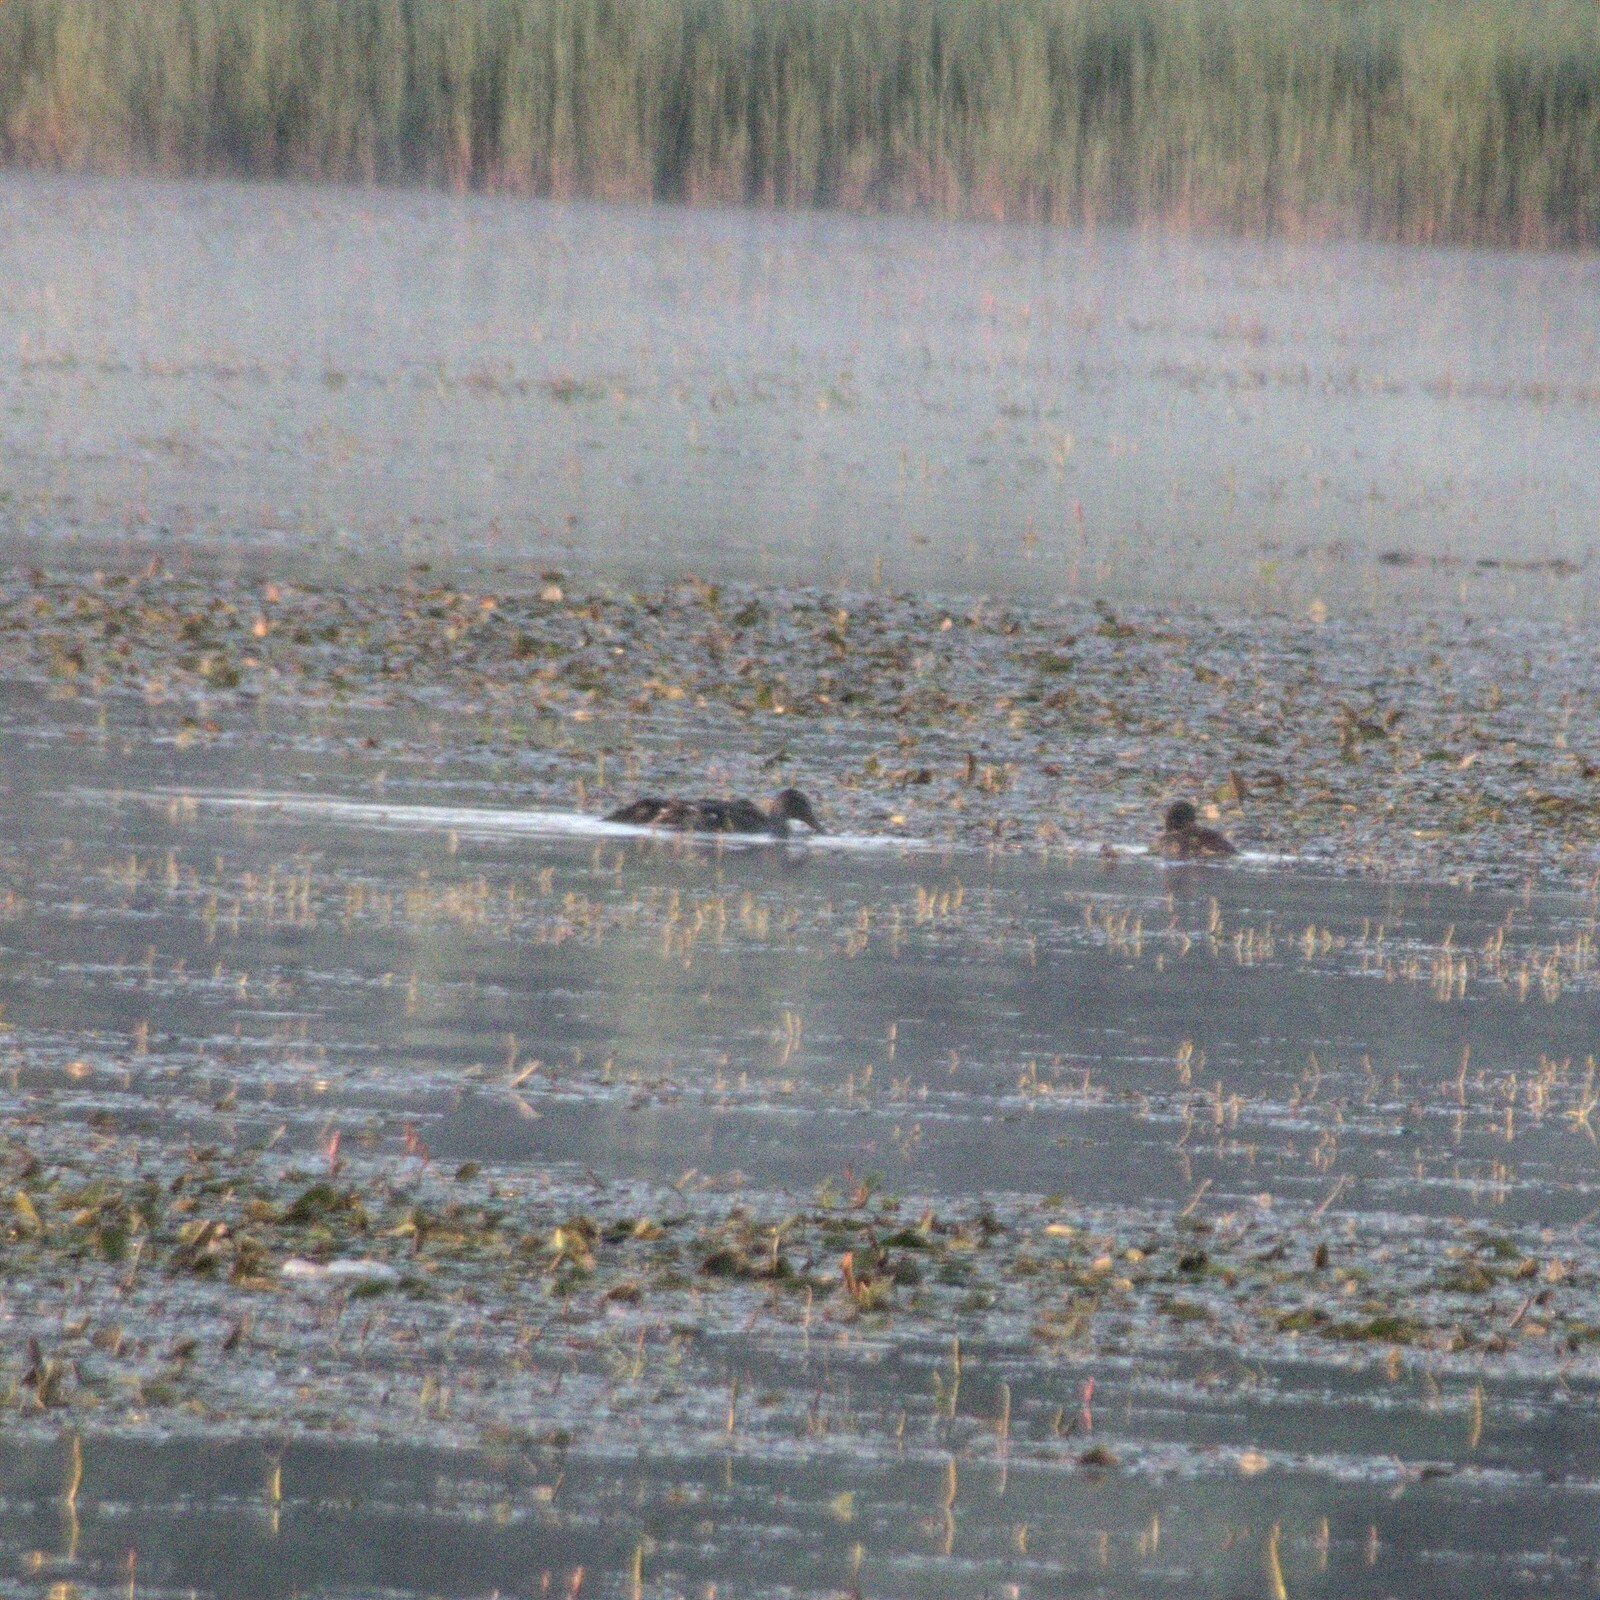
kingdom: Animalia
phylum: Chordata
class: Aves
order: Anseriformes
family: Anatidae
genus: Anas
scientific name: Anas platyrhynchos
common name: Mallard
